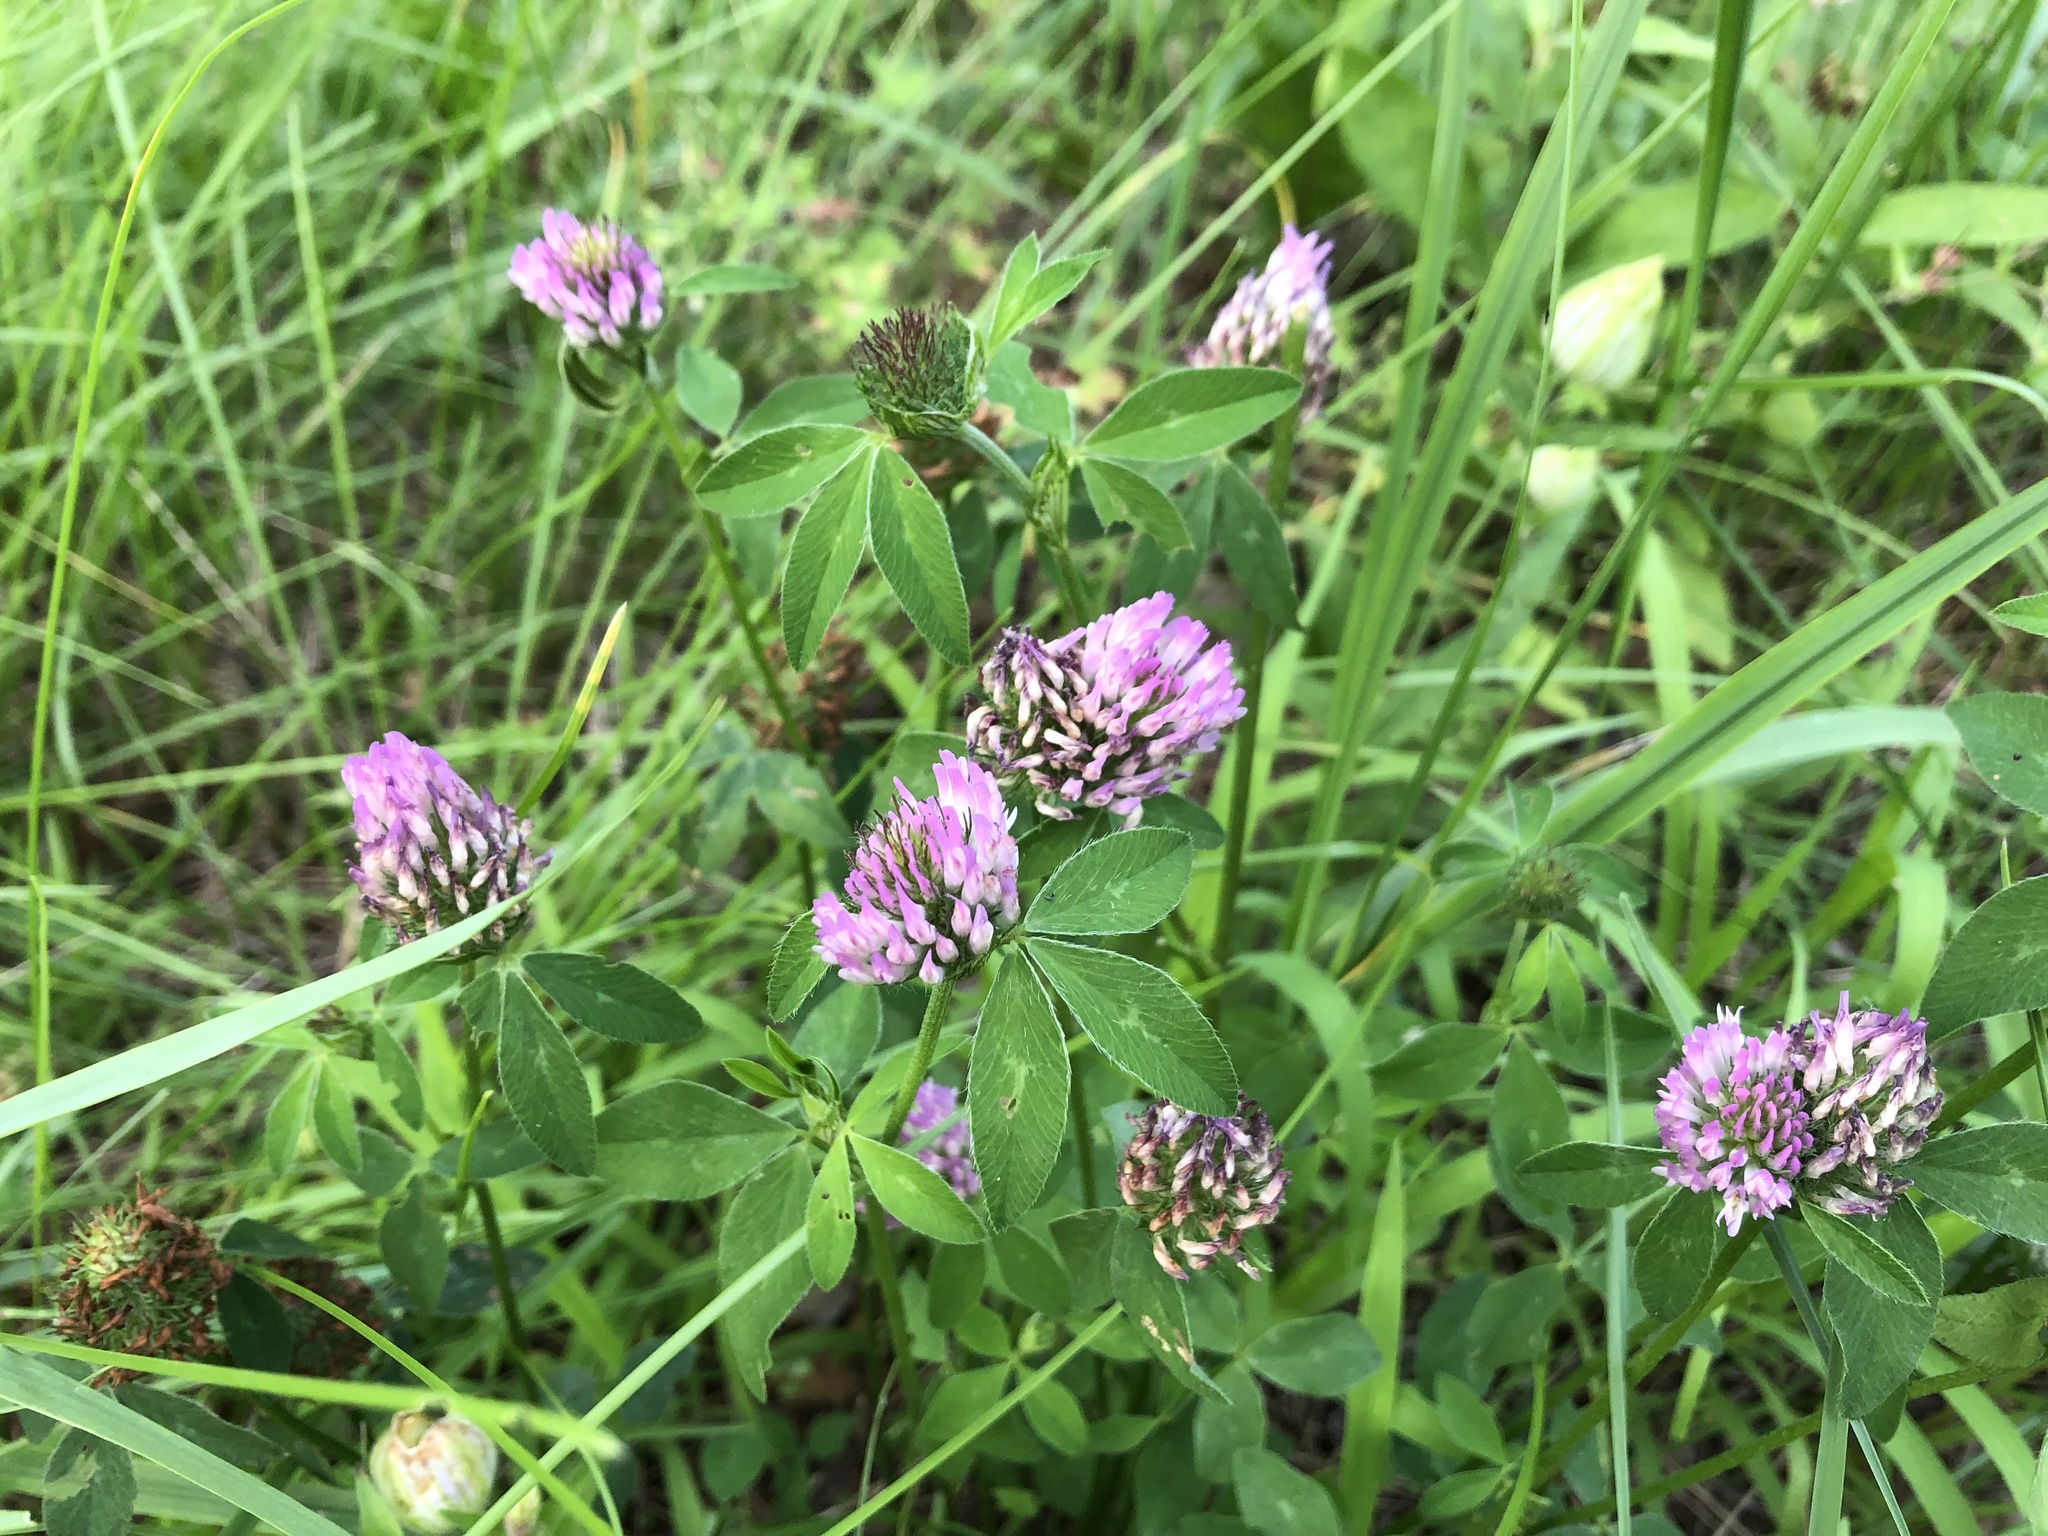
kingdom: Plantae
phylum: Tracheophyta
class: Magnoliopsida
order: Fabales
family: Fabaceae
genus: Trifolium
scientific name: Trifolium pratense
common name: Red clover
